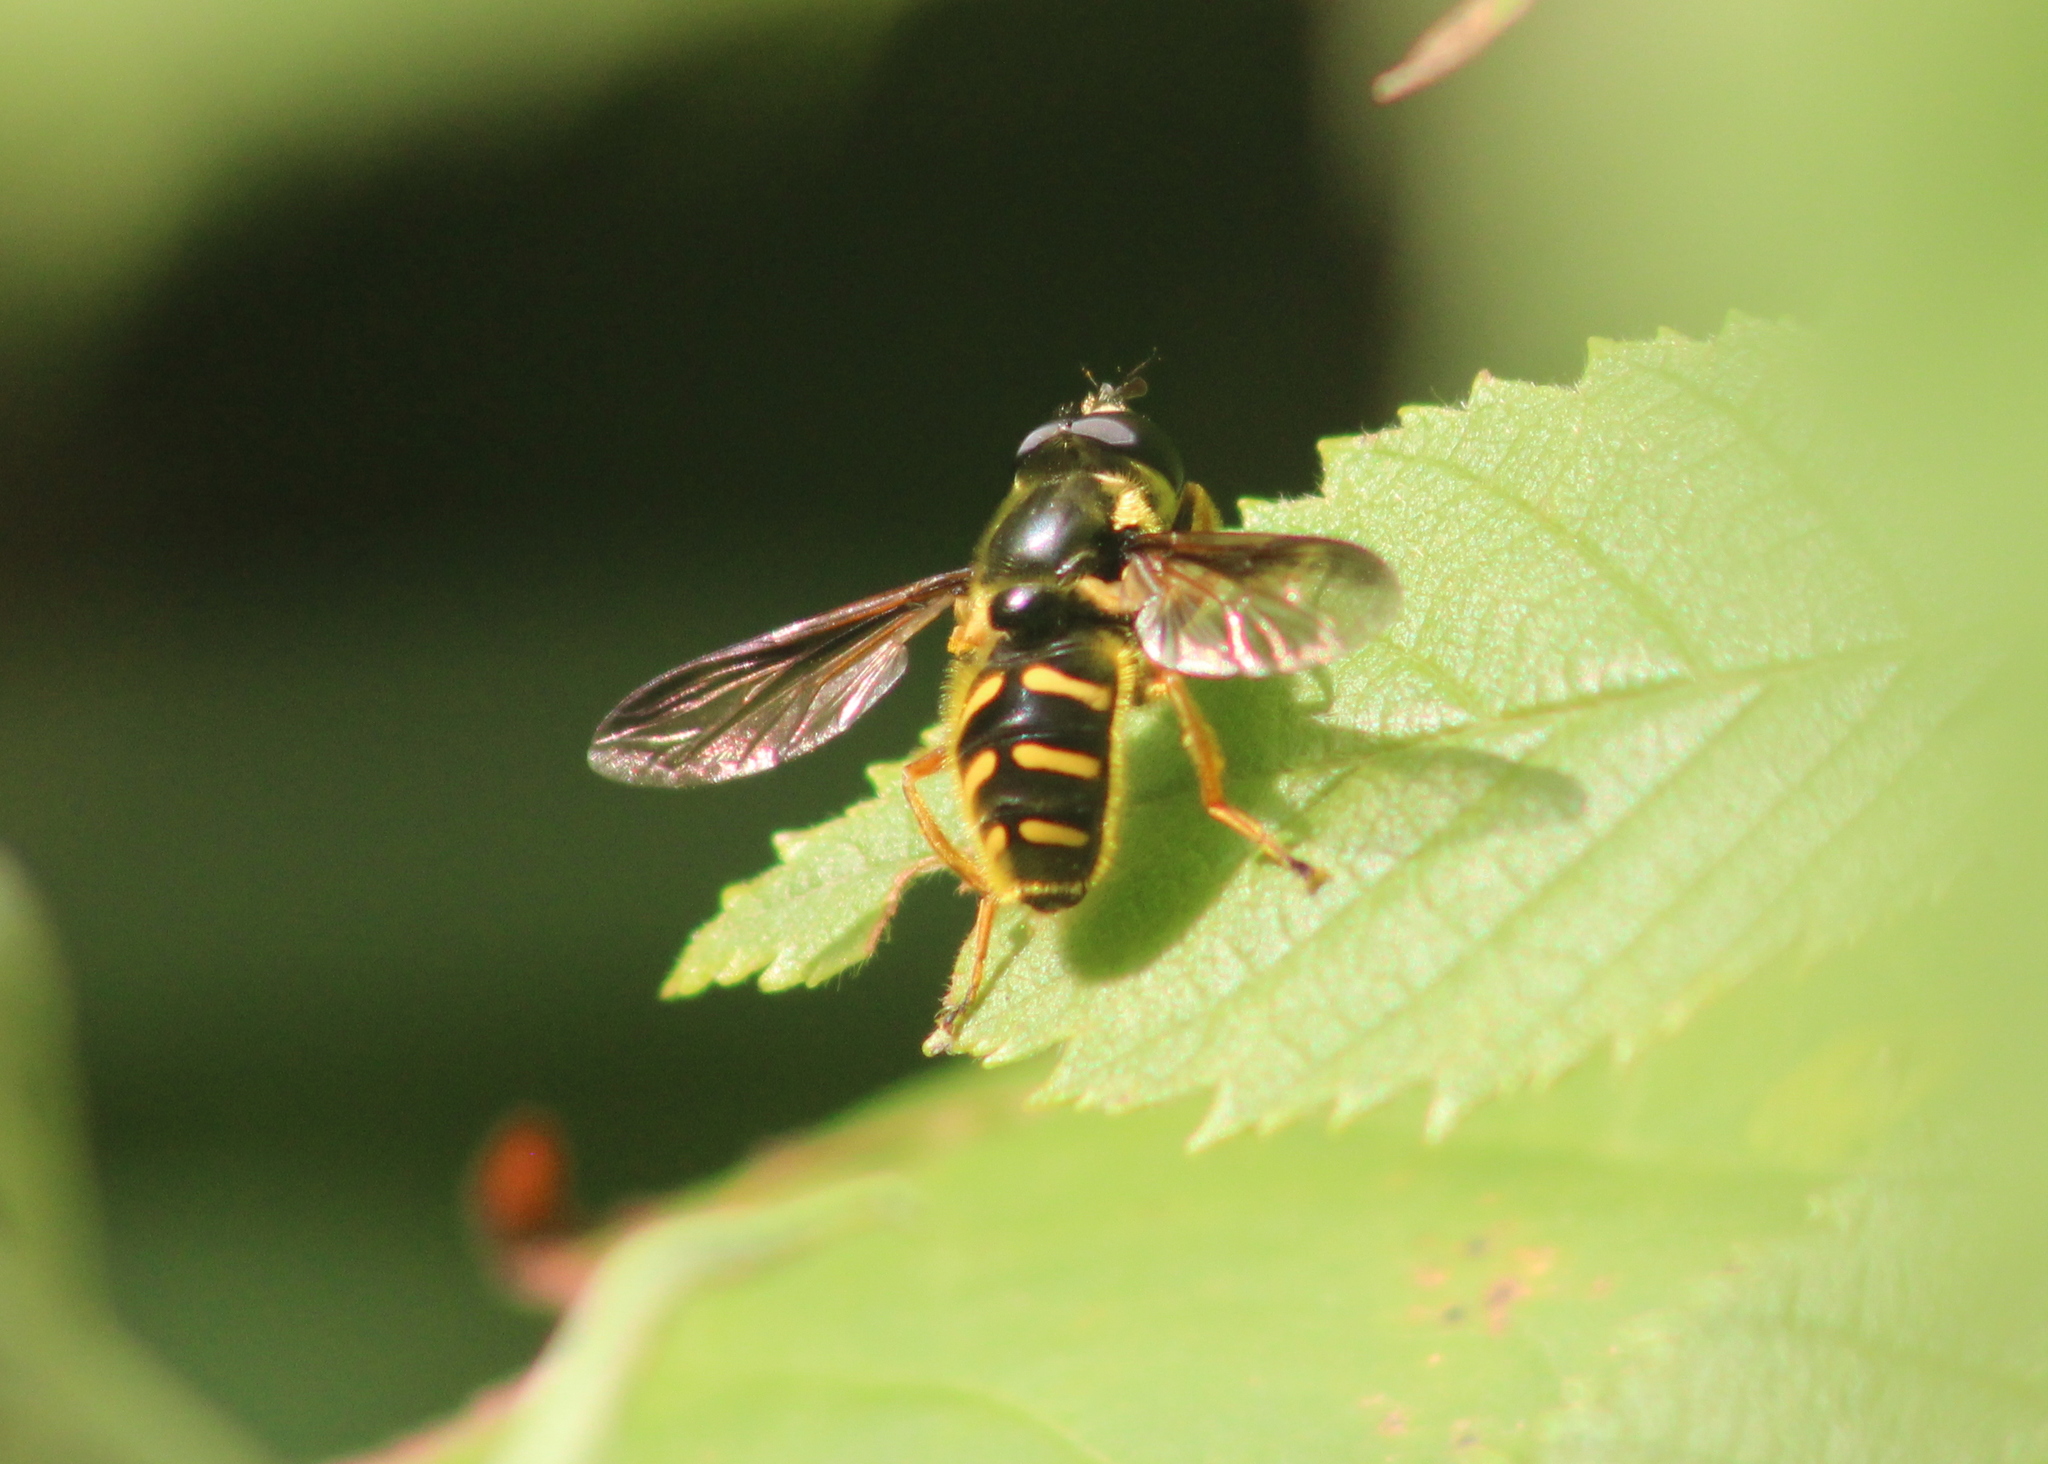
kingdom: Animalia
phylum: Arthropoda
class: Insecta
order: Diptera
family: Syrphidae
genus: Sericomyia
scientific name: Sericomyia chrysotoxoides
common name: Oblique-banded pond fly
